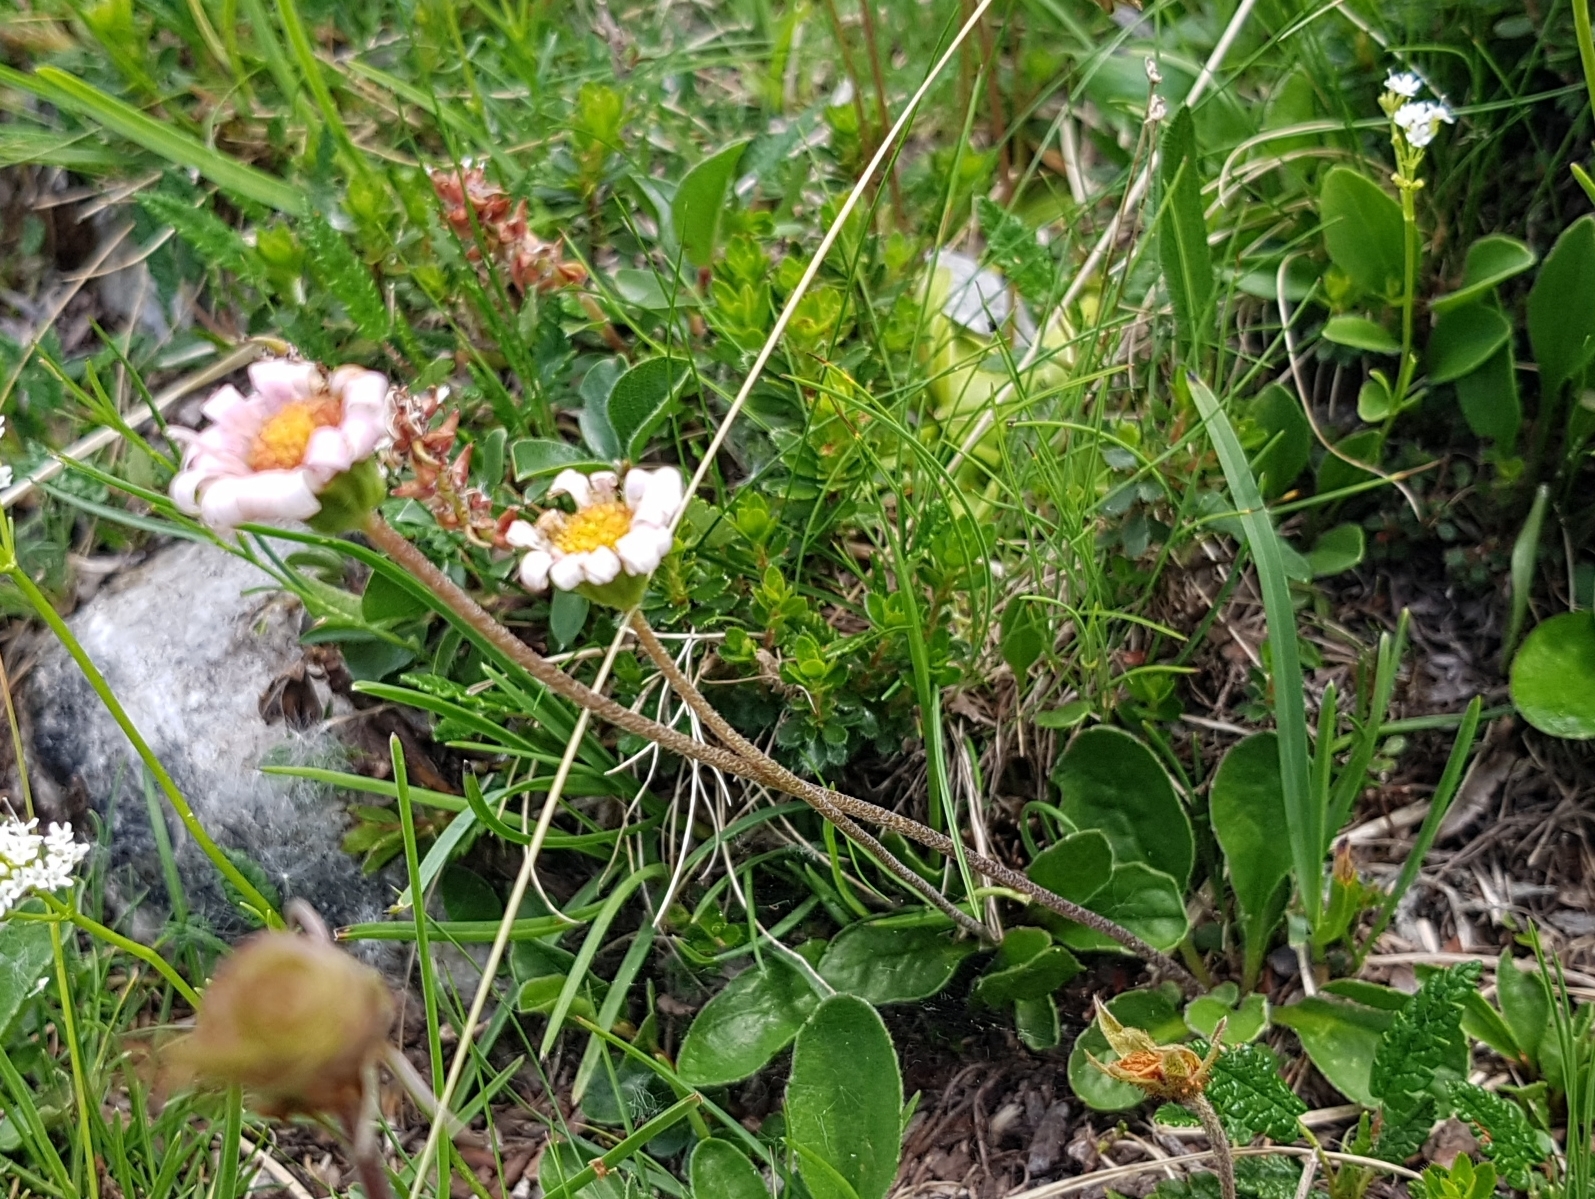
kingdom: Plantae
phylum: Tracheophyta
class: Magnoliopsida
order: Asterales
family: Asteraceae
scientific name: Asteraceae
